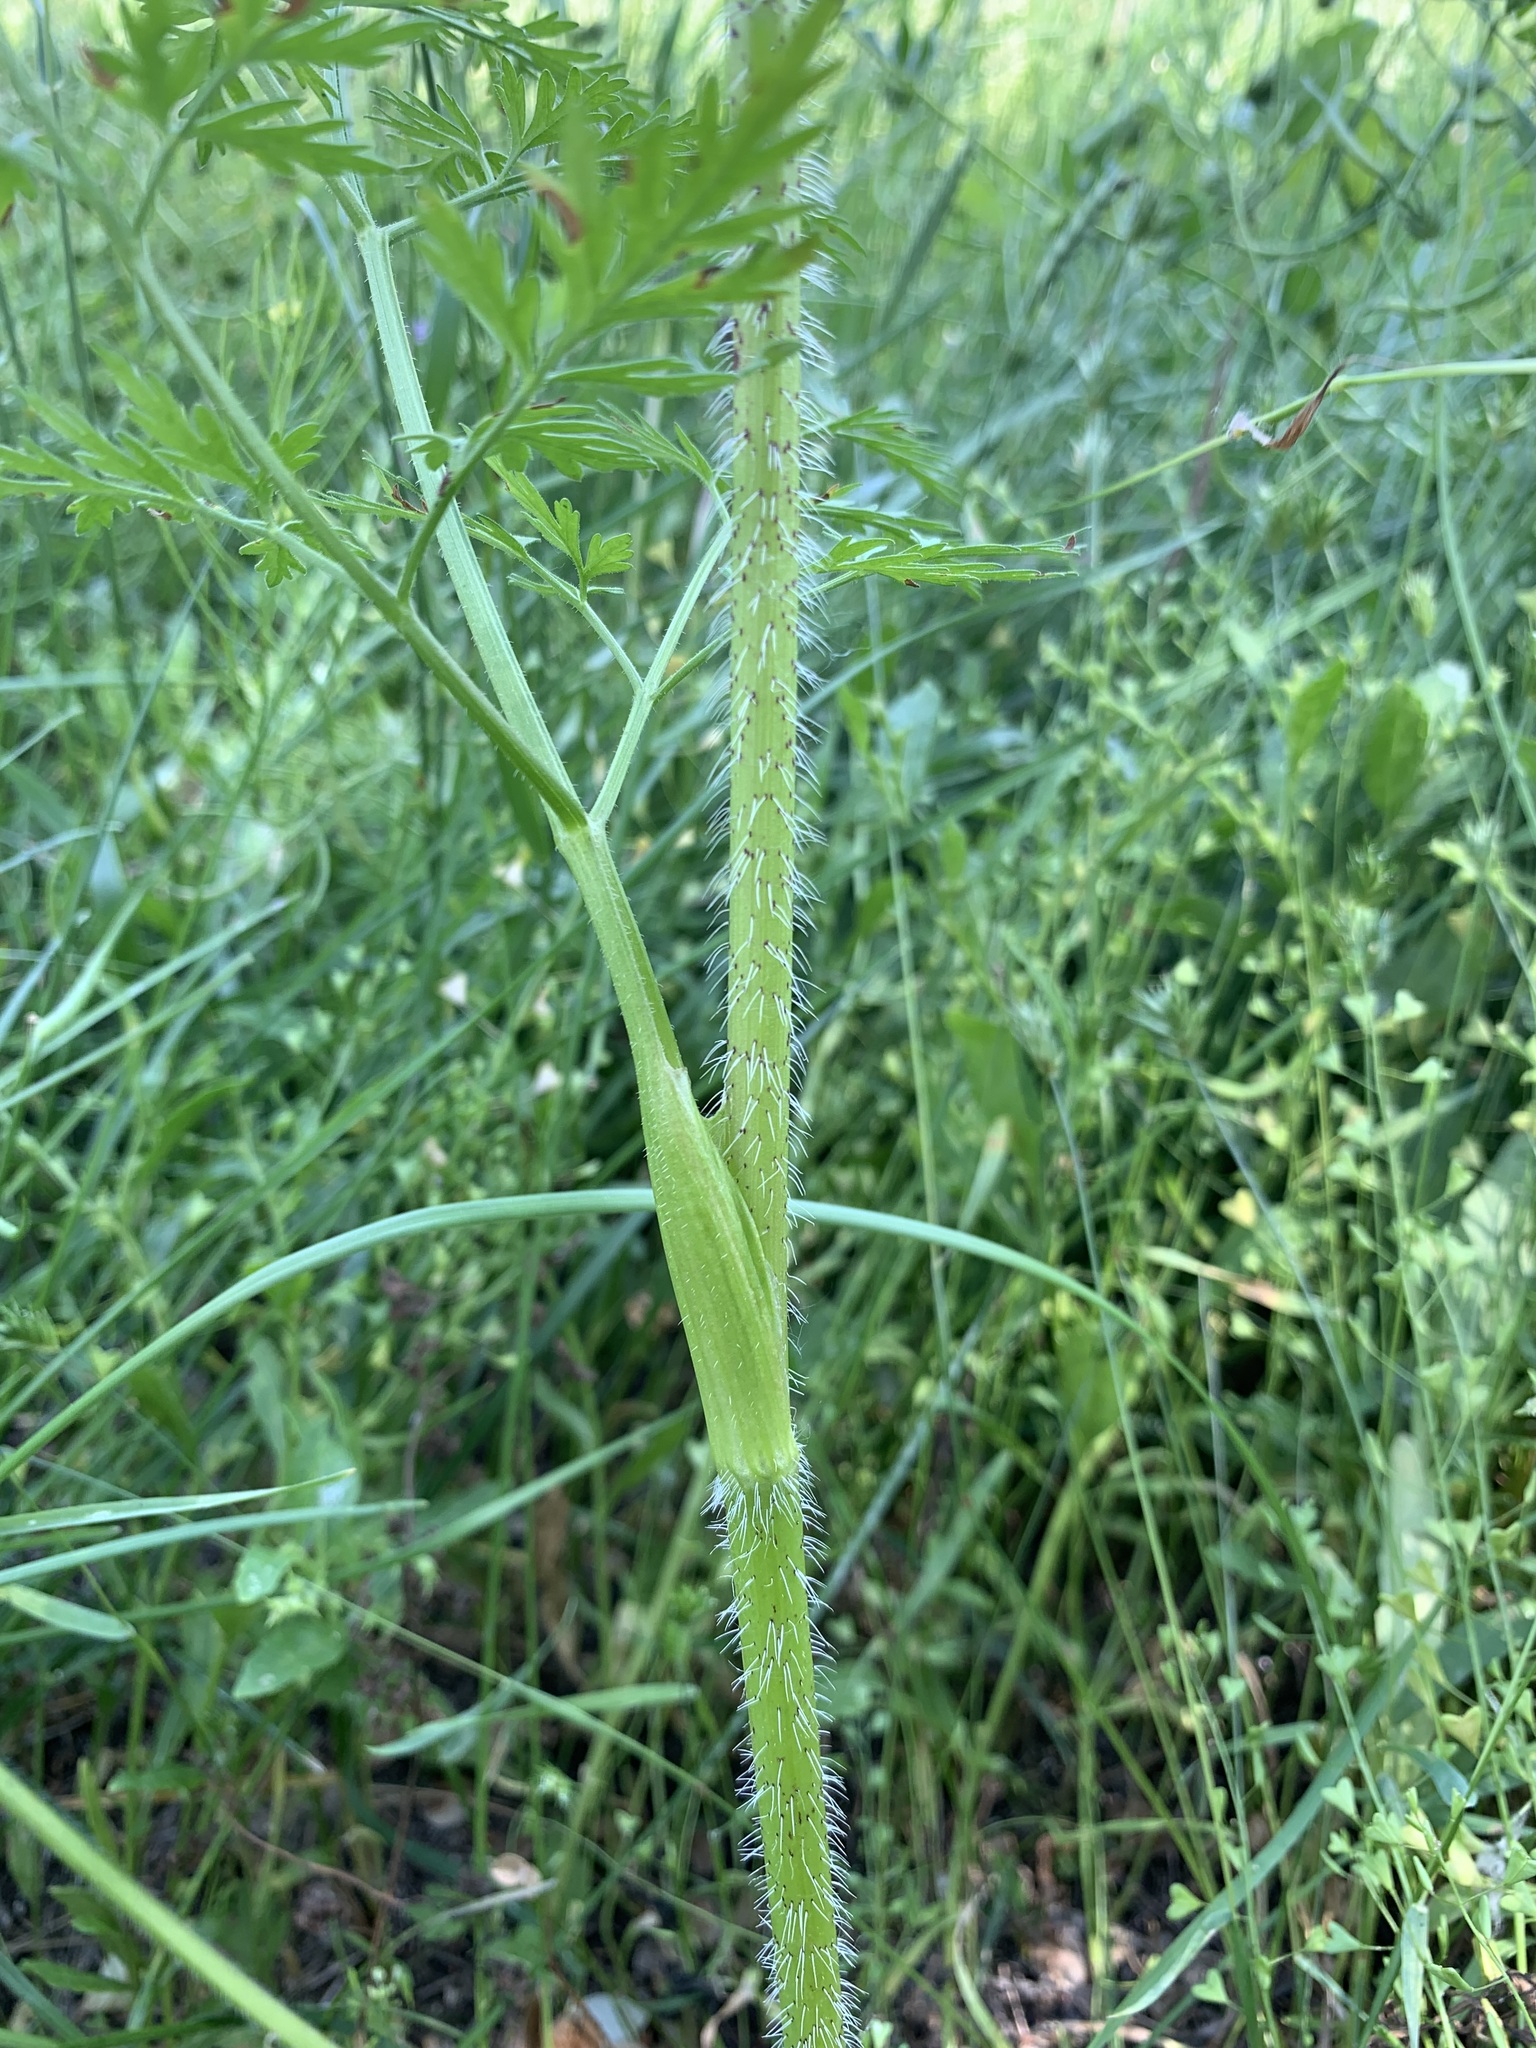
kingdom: Plantae
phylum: Tracheophyta
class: Magnoliopsida
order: Apiales
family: Apiaceae
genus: Chaerophyllum
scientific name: Chaerophyllum prescottii
